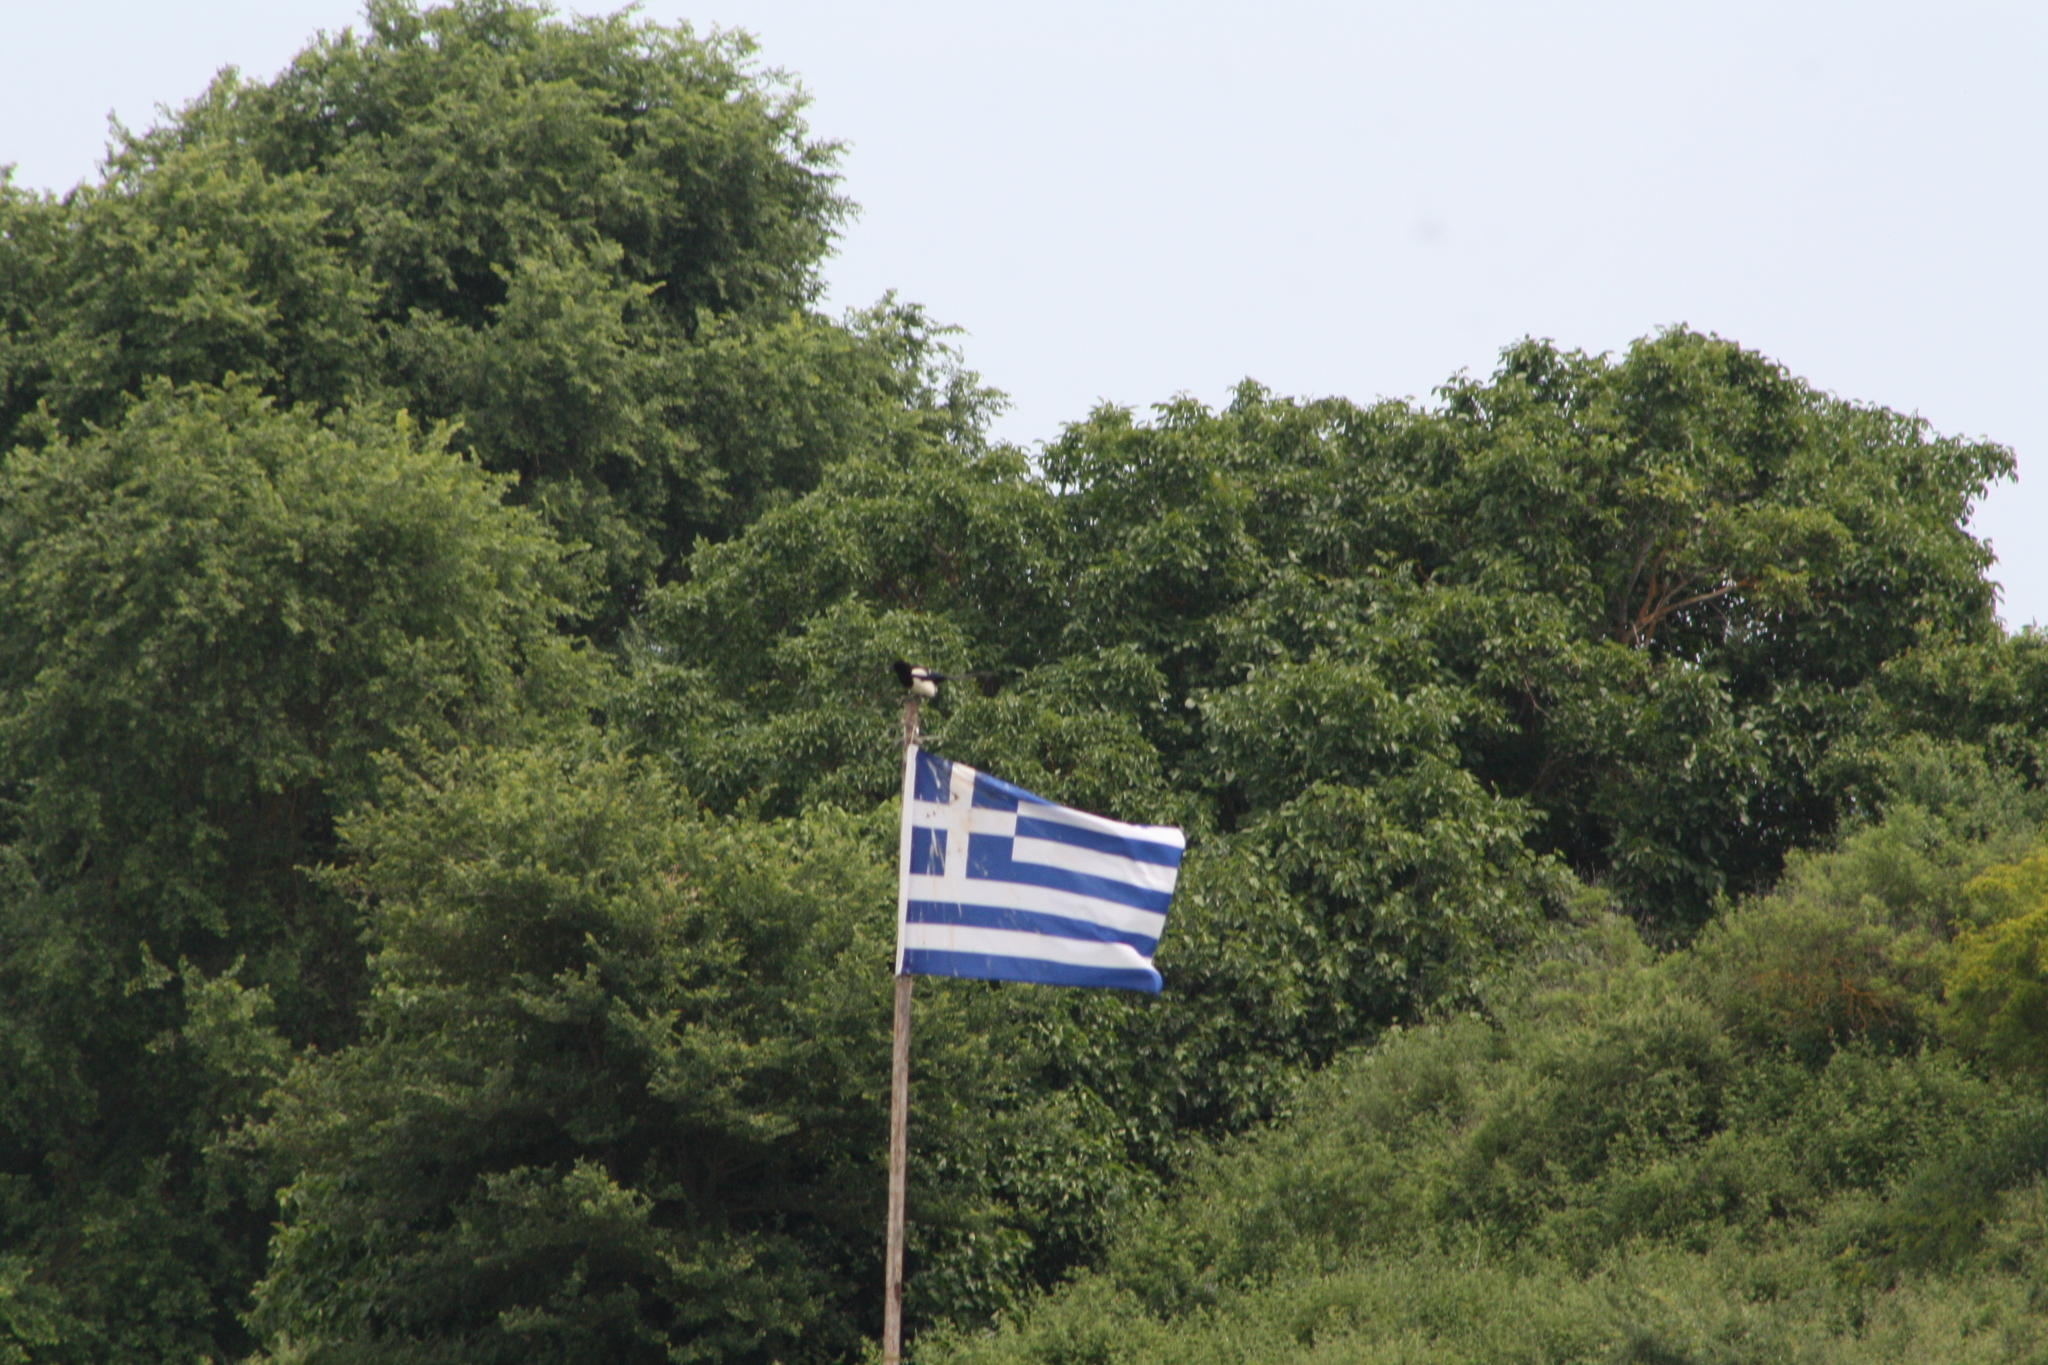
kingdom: Animalia
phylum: Chordata
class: Aves
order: Passeriformes
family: Corvidae
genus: Pica
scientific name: Pica pica
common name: Eurasian magpie
